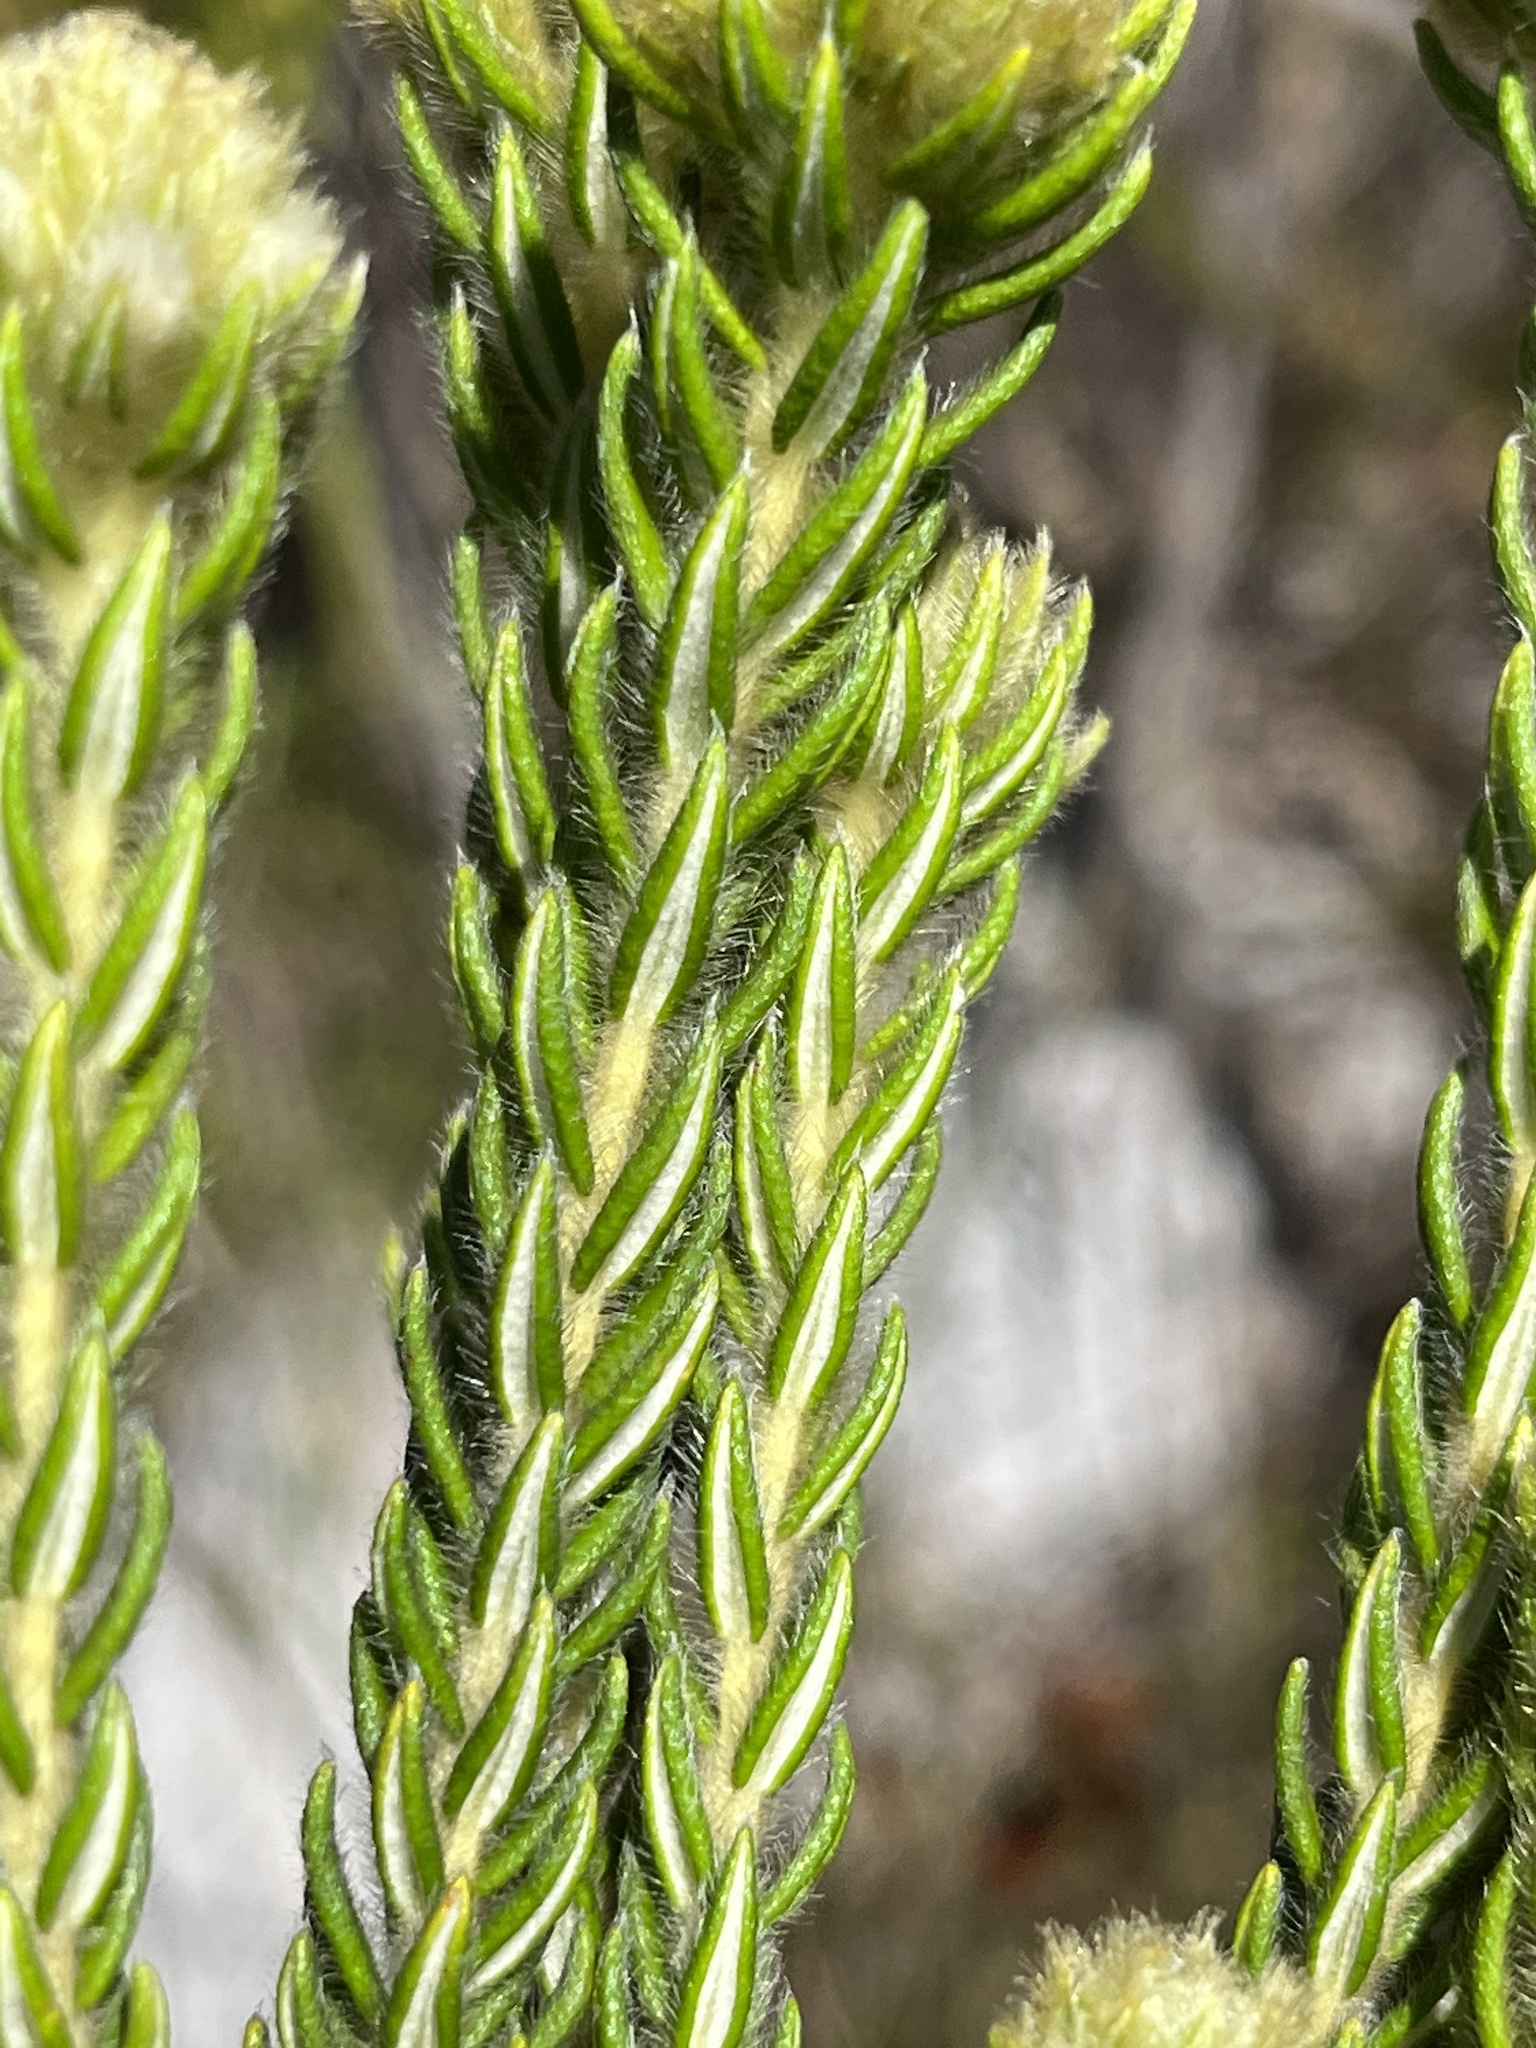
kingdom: Plantae
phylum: Tracheophyta
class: Magnoliopsida
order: Rosales
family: Rhamnaceae
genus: Phylica
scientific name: Phylica strigosa
